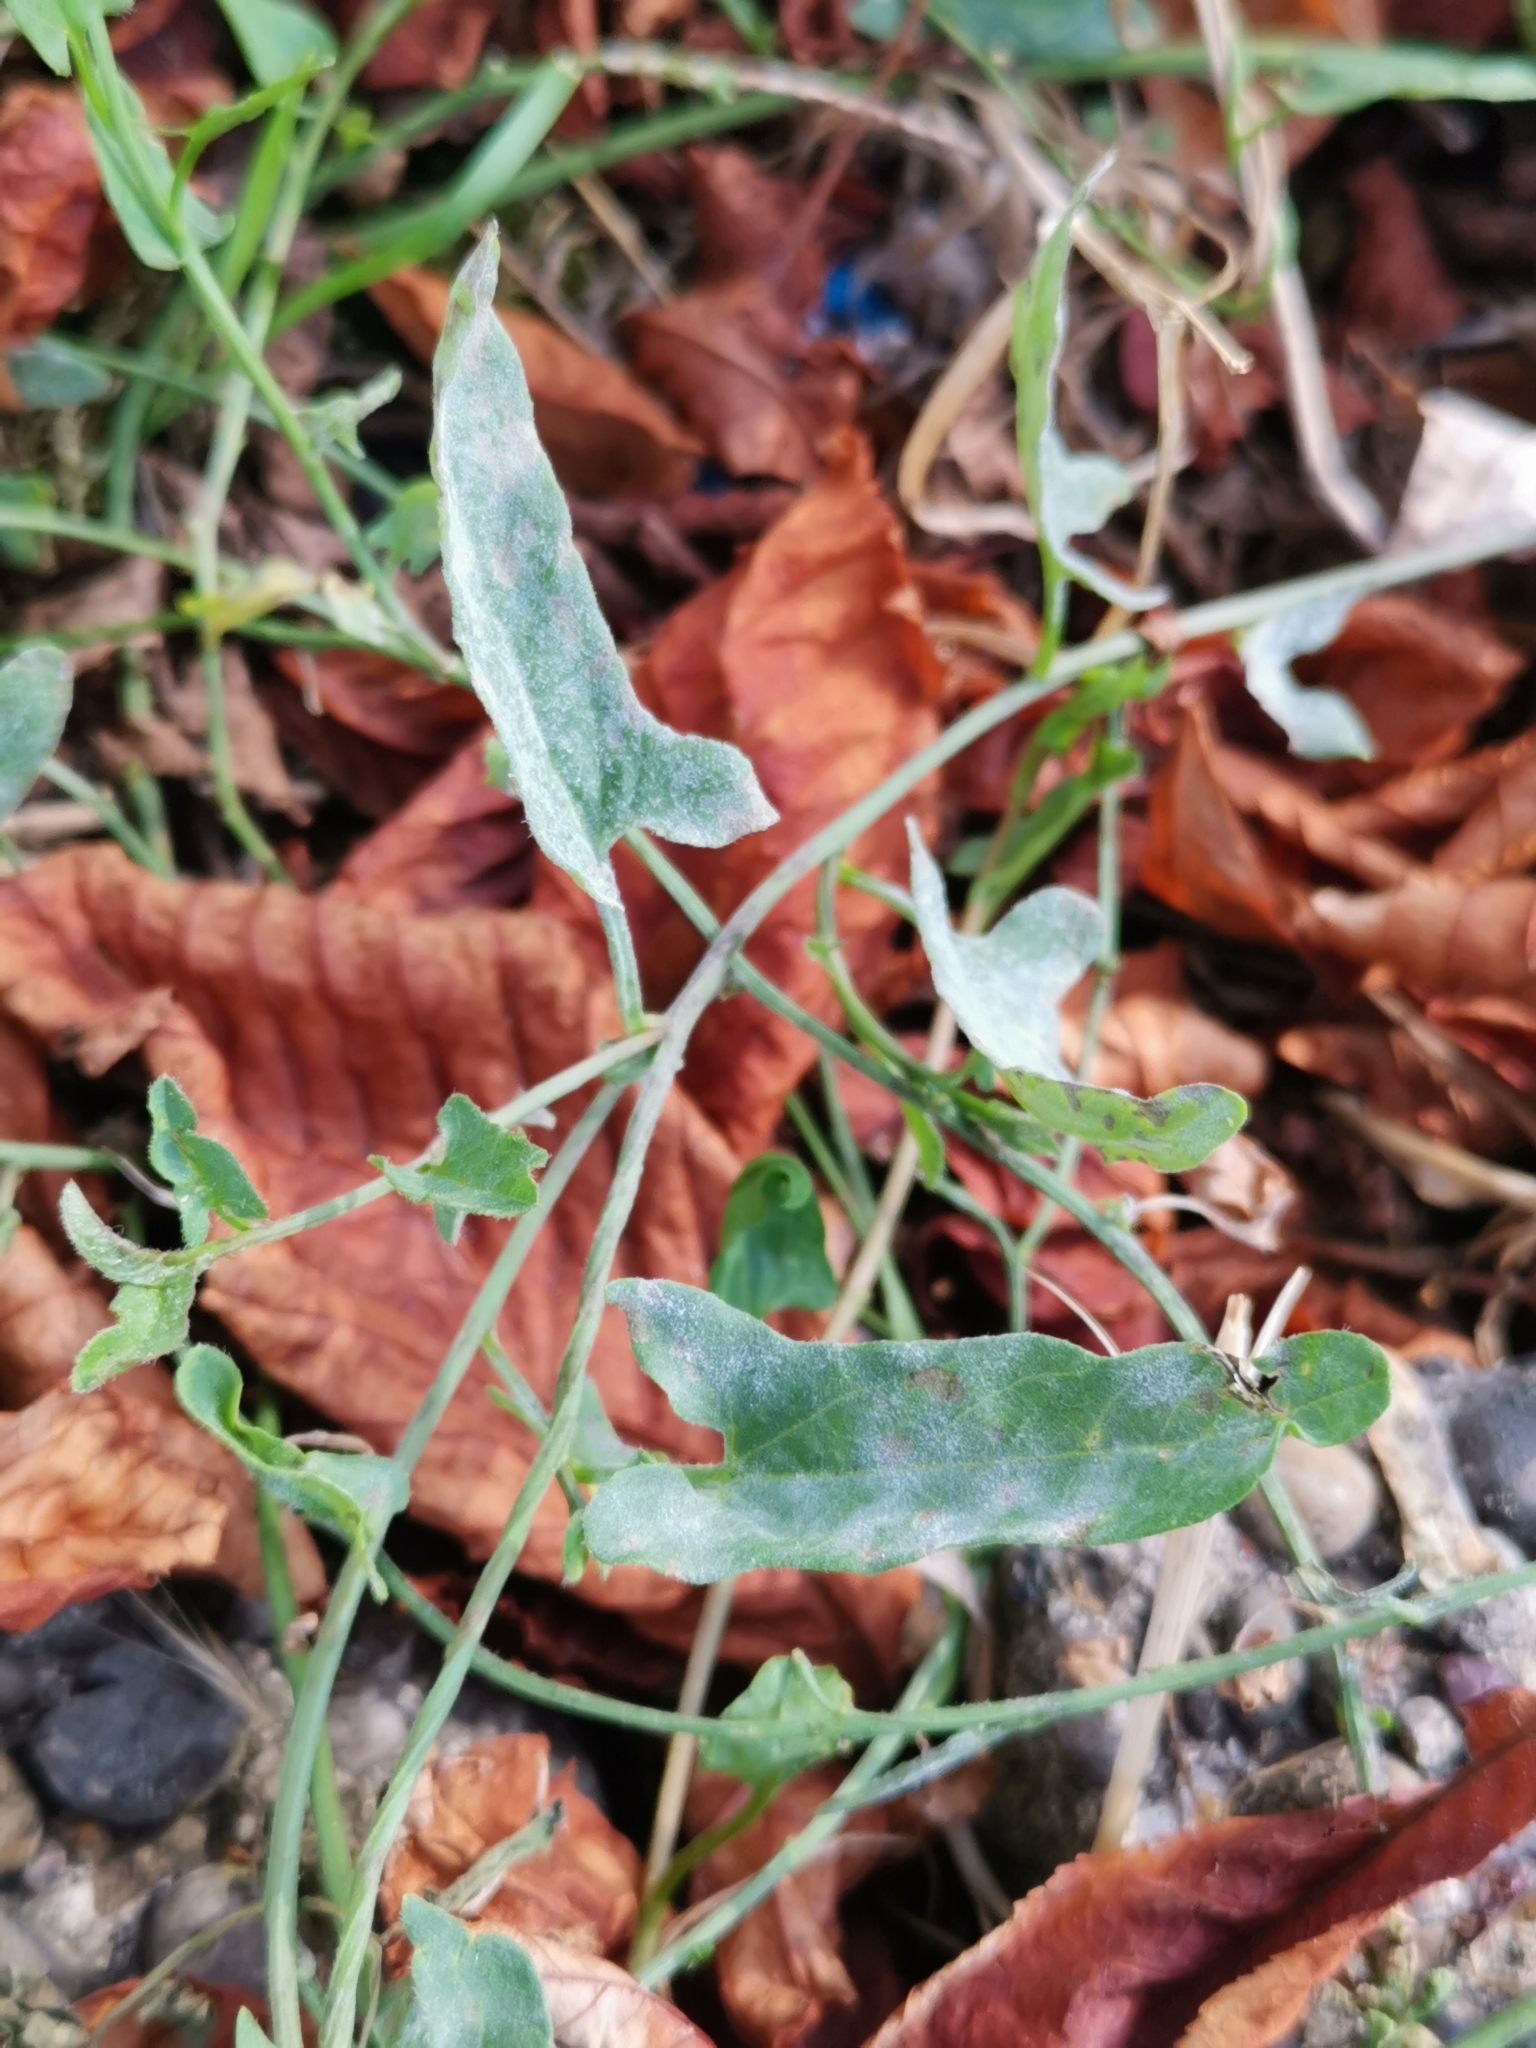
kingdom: Fungi
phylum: Ascomycota
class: Leotiomycetes
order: Helotiales
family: Erysiphaceae
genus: Erysiphe
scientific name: Erysiphe convolvuli
